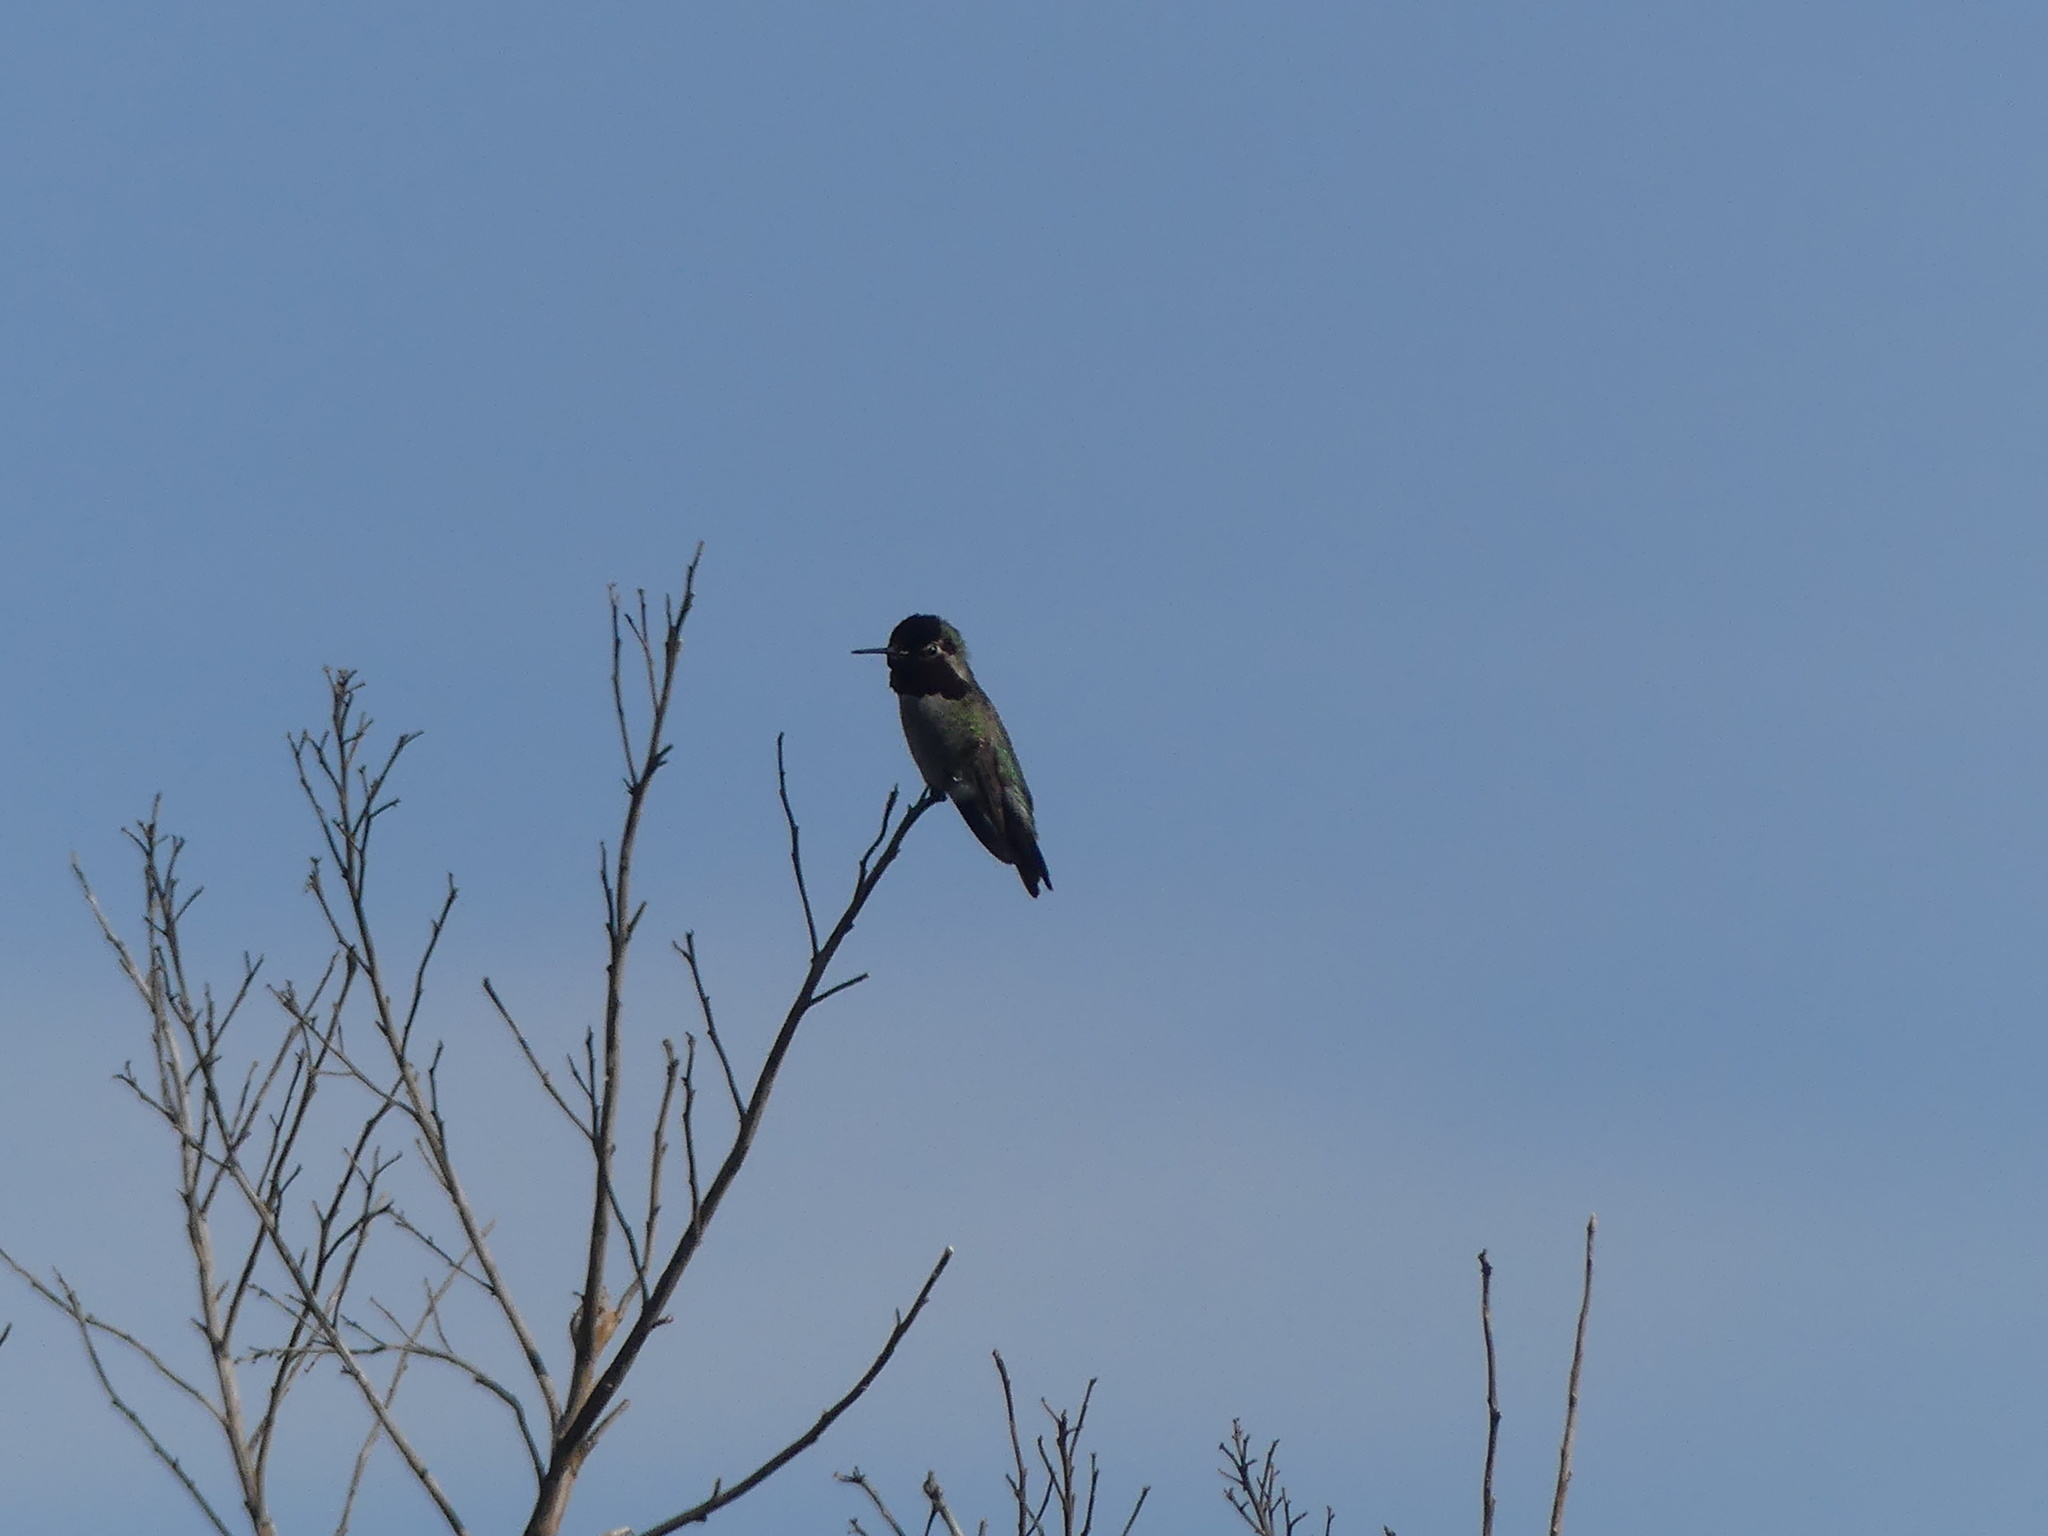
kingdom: Animalia
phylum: Chordata
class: Aves
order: Apodiformes
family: Trochilidae
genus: Calypte
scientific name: Calypte anna
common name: Anna's hummingbird
